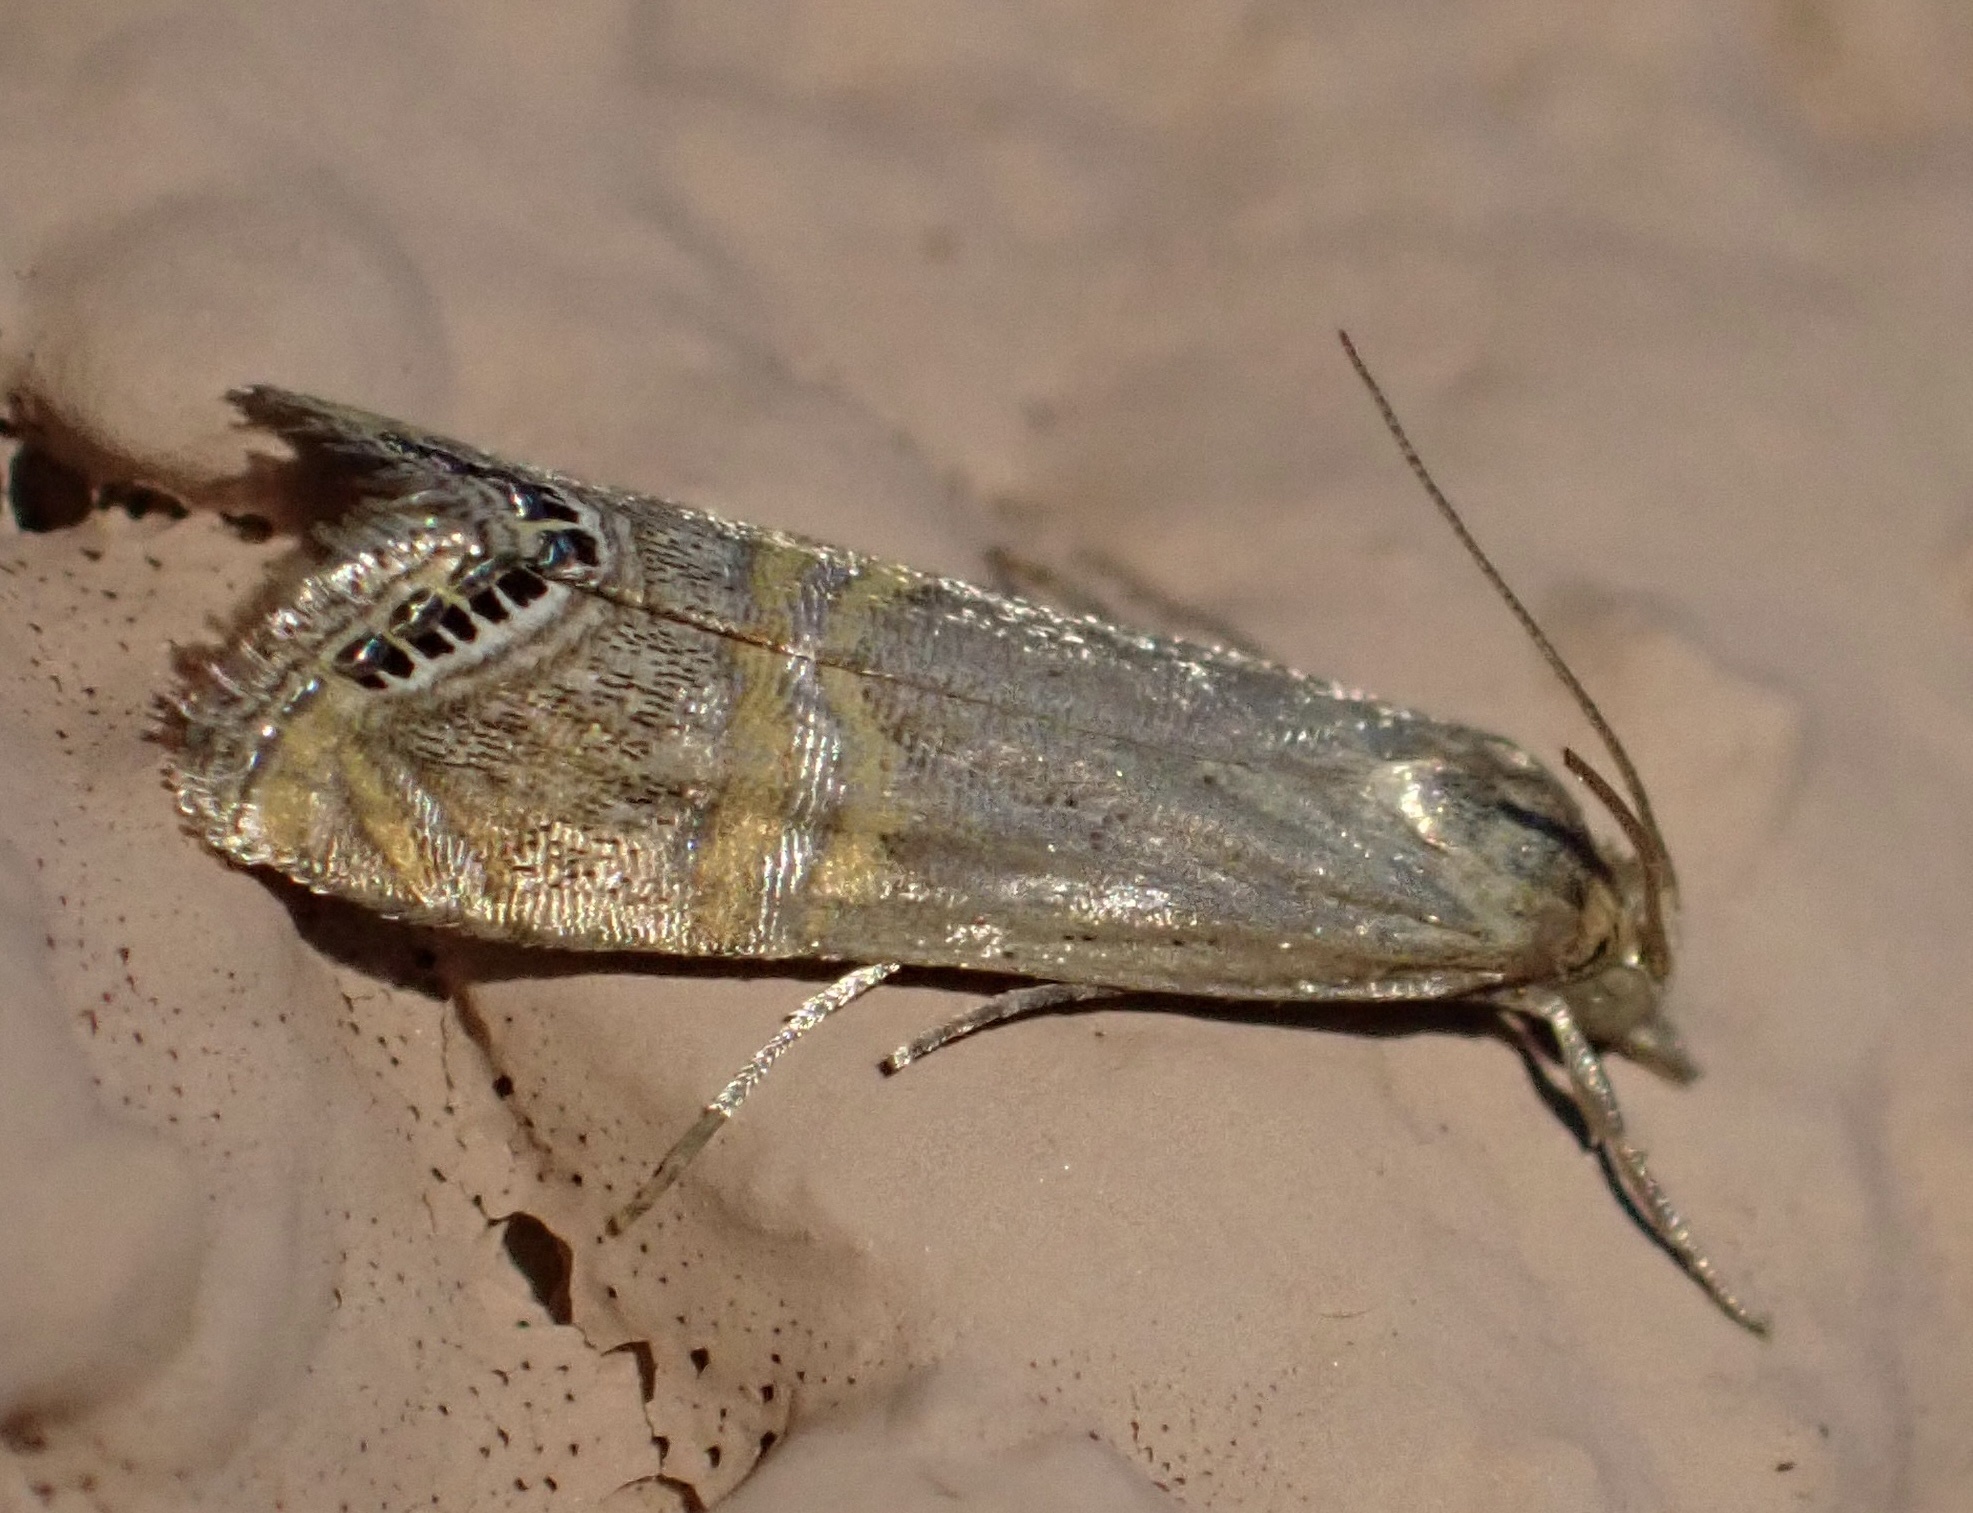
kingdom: Animalia
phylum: Arthropoda
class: Insecta
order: Lepidoptera
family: Crambidae
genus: Euchromius
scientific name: Euchromius ocellea
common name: Necklace veneer moth
